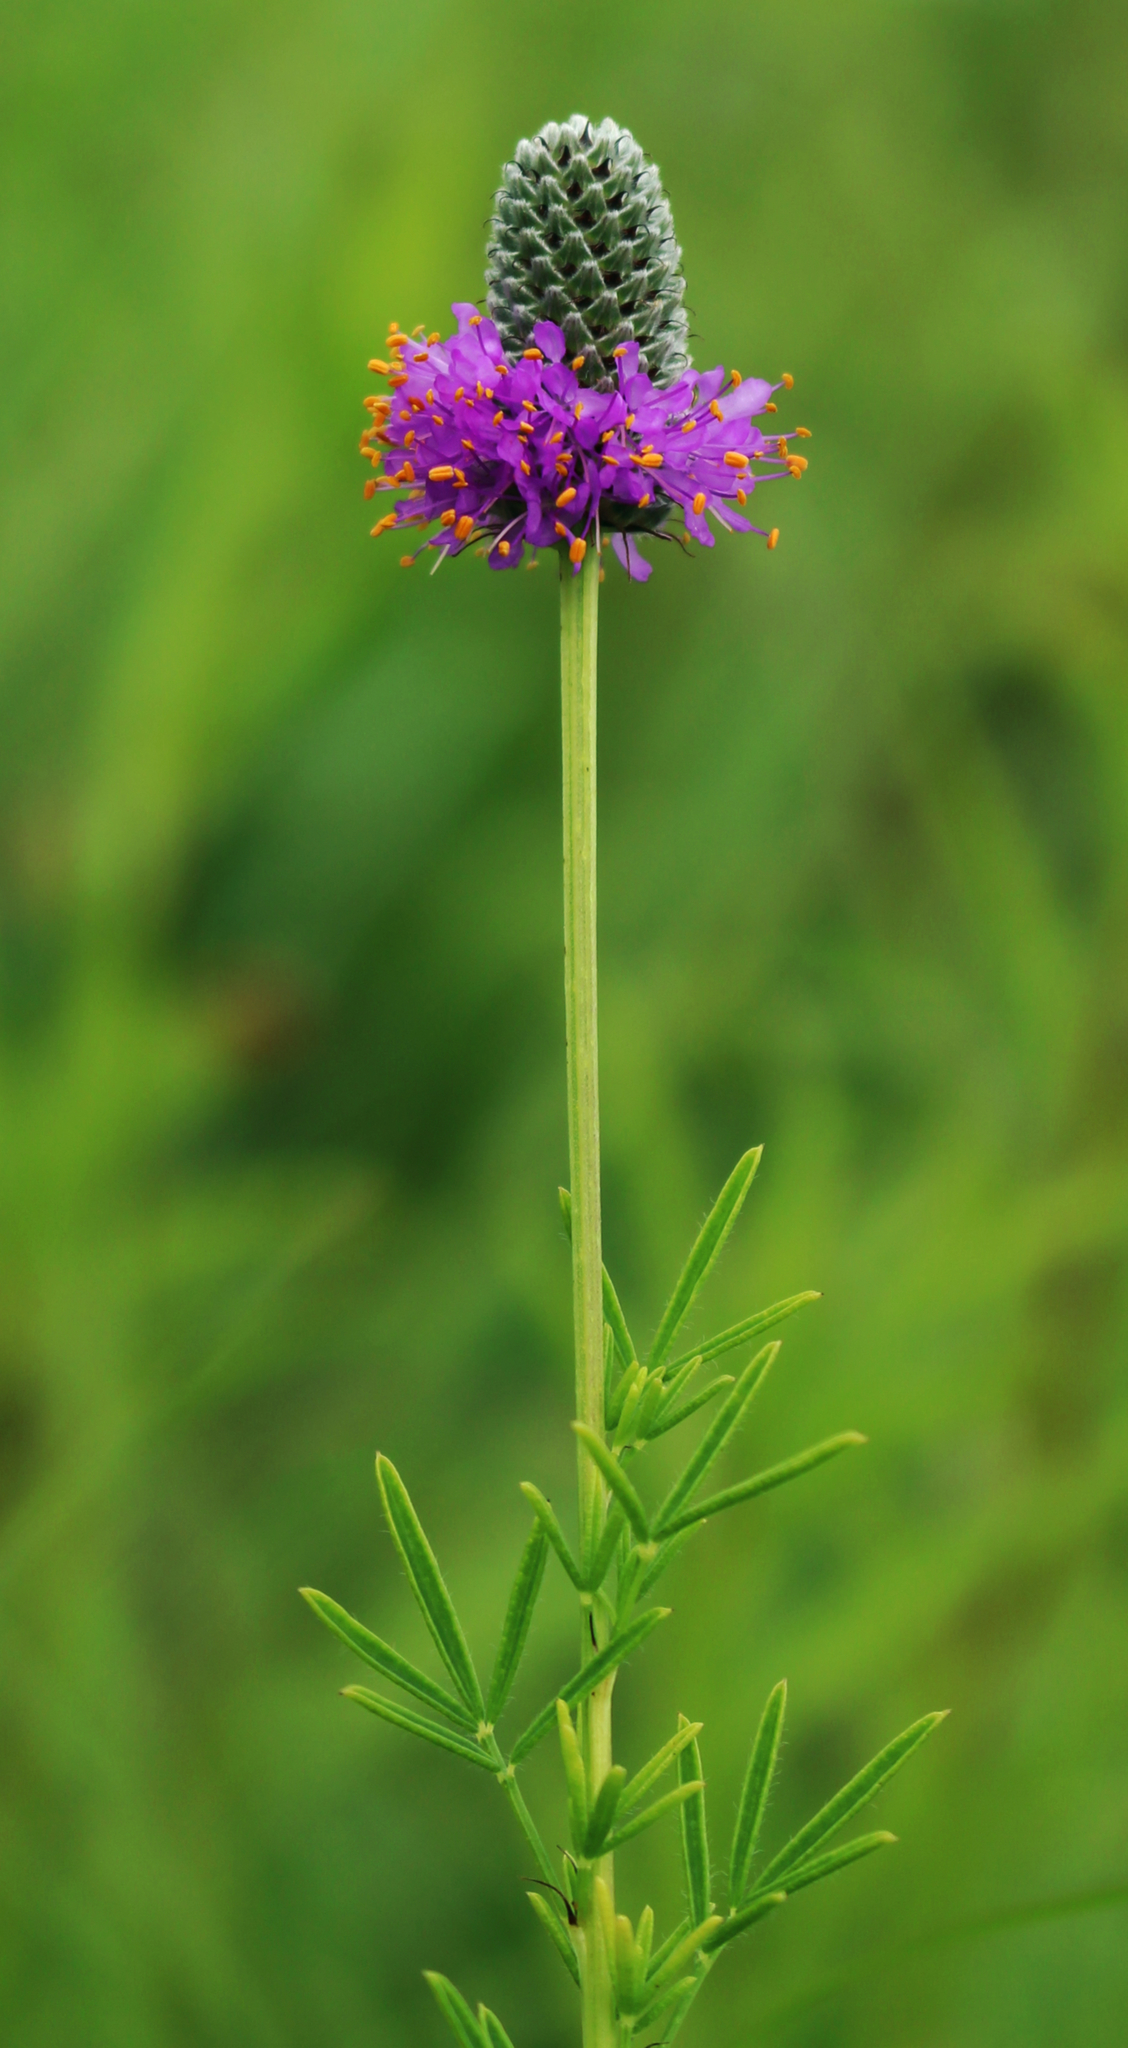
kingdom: Plantae
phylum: Tracheophyta
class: Magnoliopsida
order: Fabales
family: Fabaceae
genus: Dalea
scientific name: Dalea purpurea
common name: Purple prairie-clover
